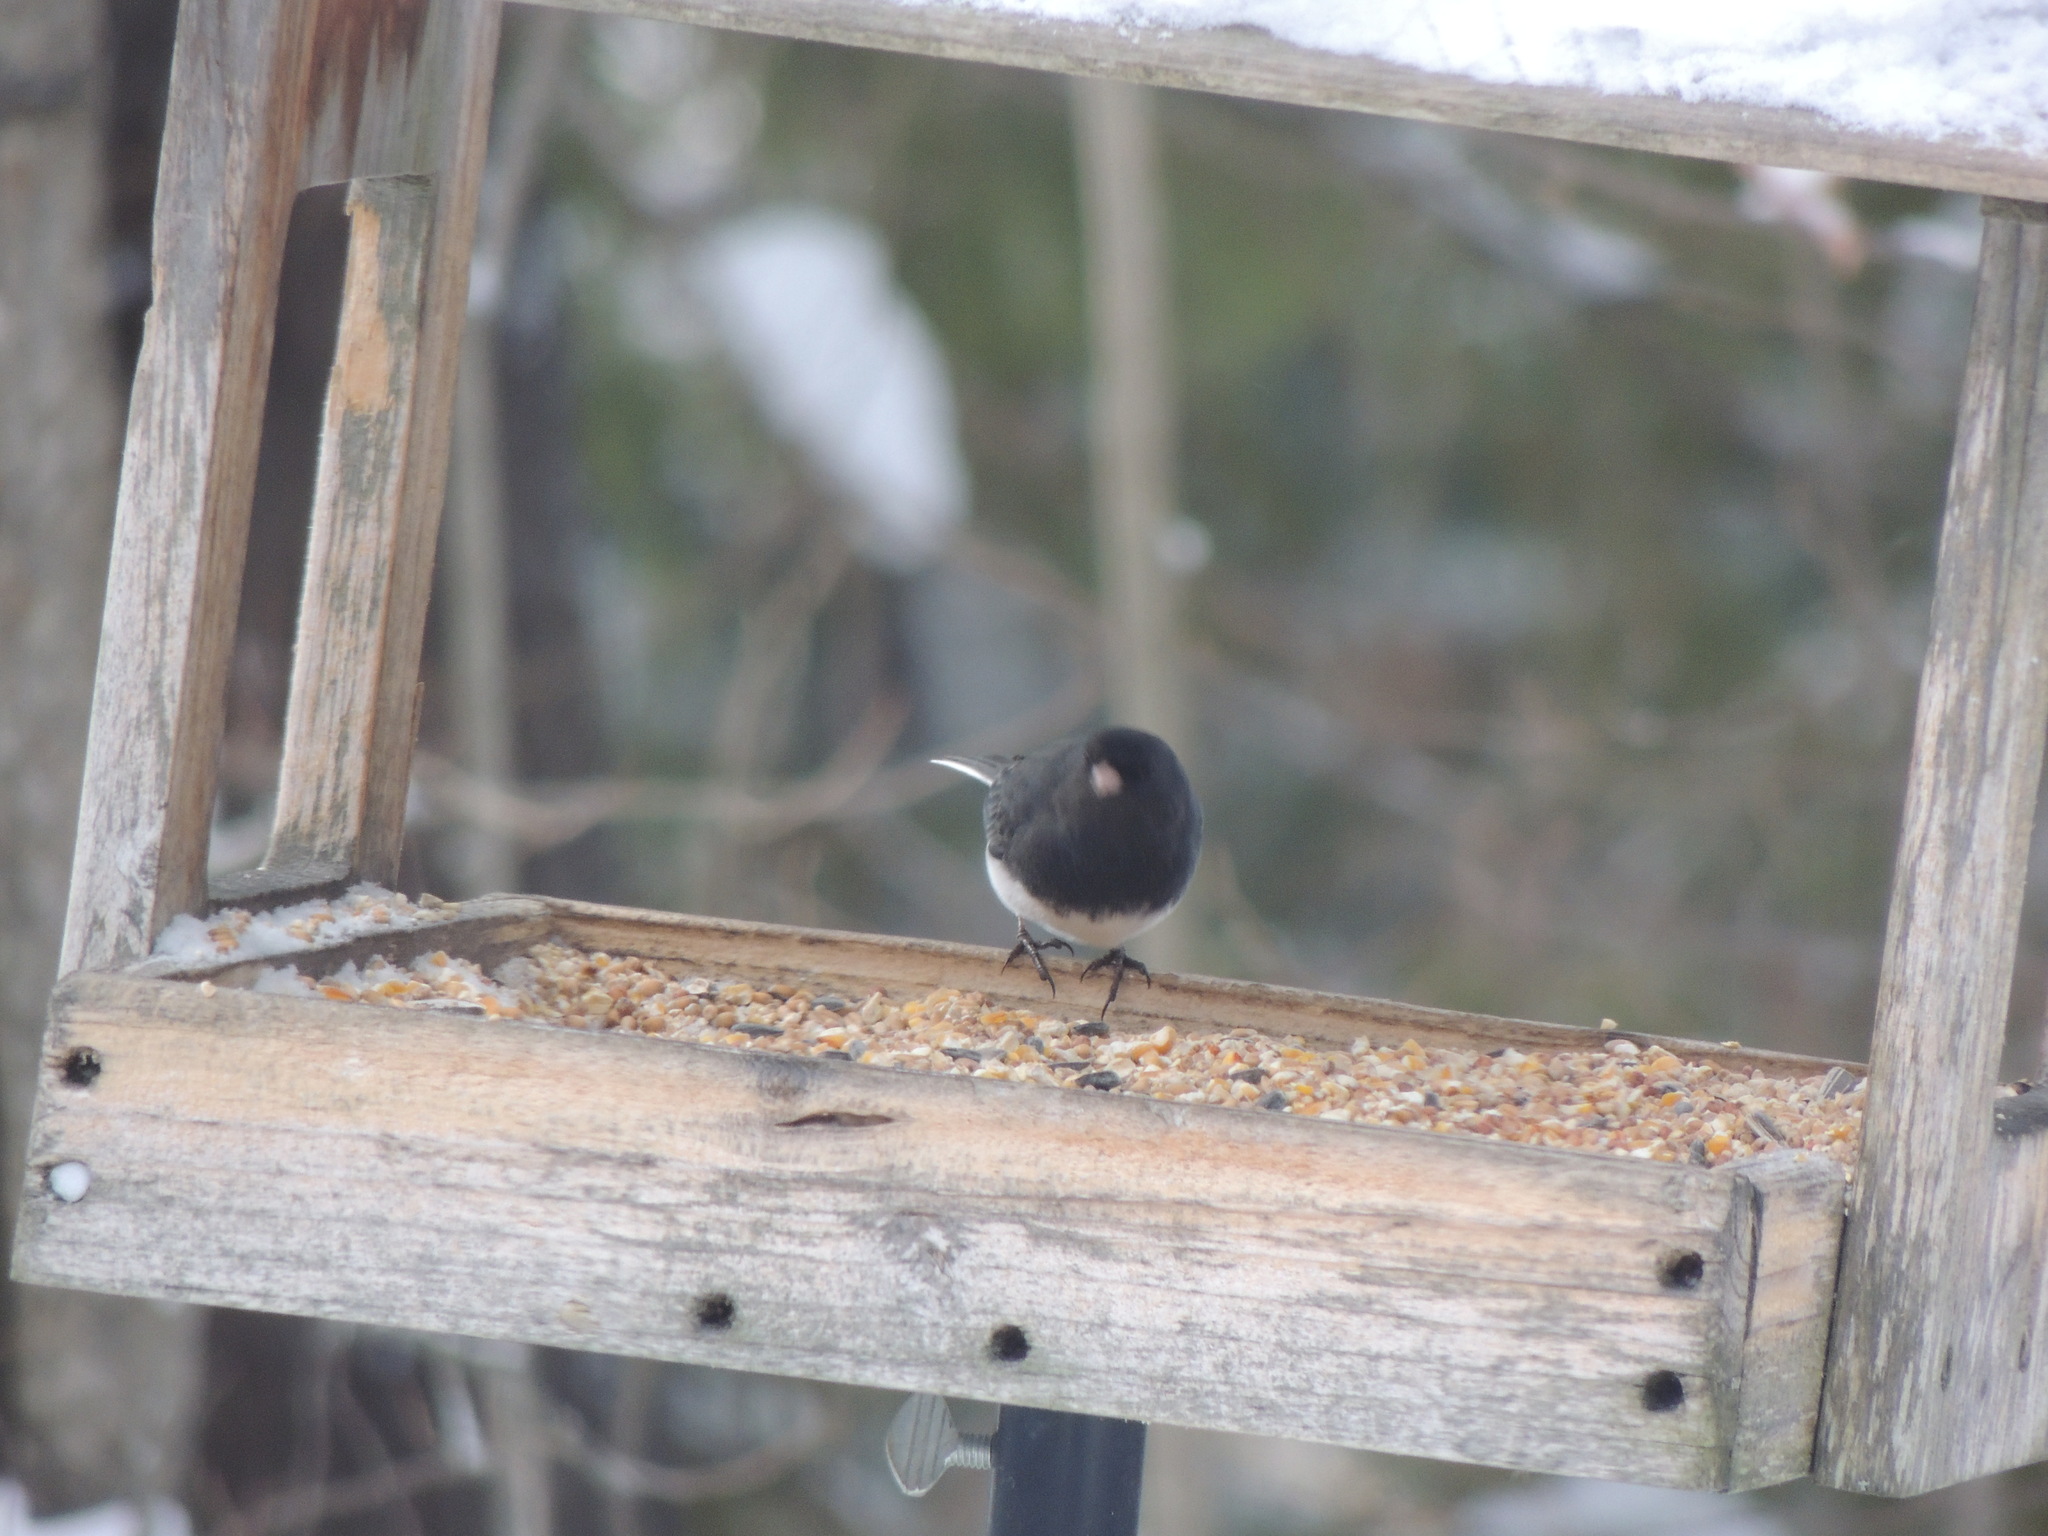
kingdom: Animalia
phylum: Chordata
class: Aves
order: Passeriformes
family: Passerellidae
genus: Junco
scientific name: Junco hyemalis
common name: Dark-eyed junco
